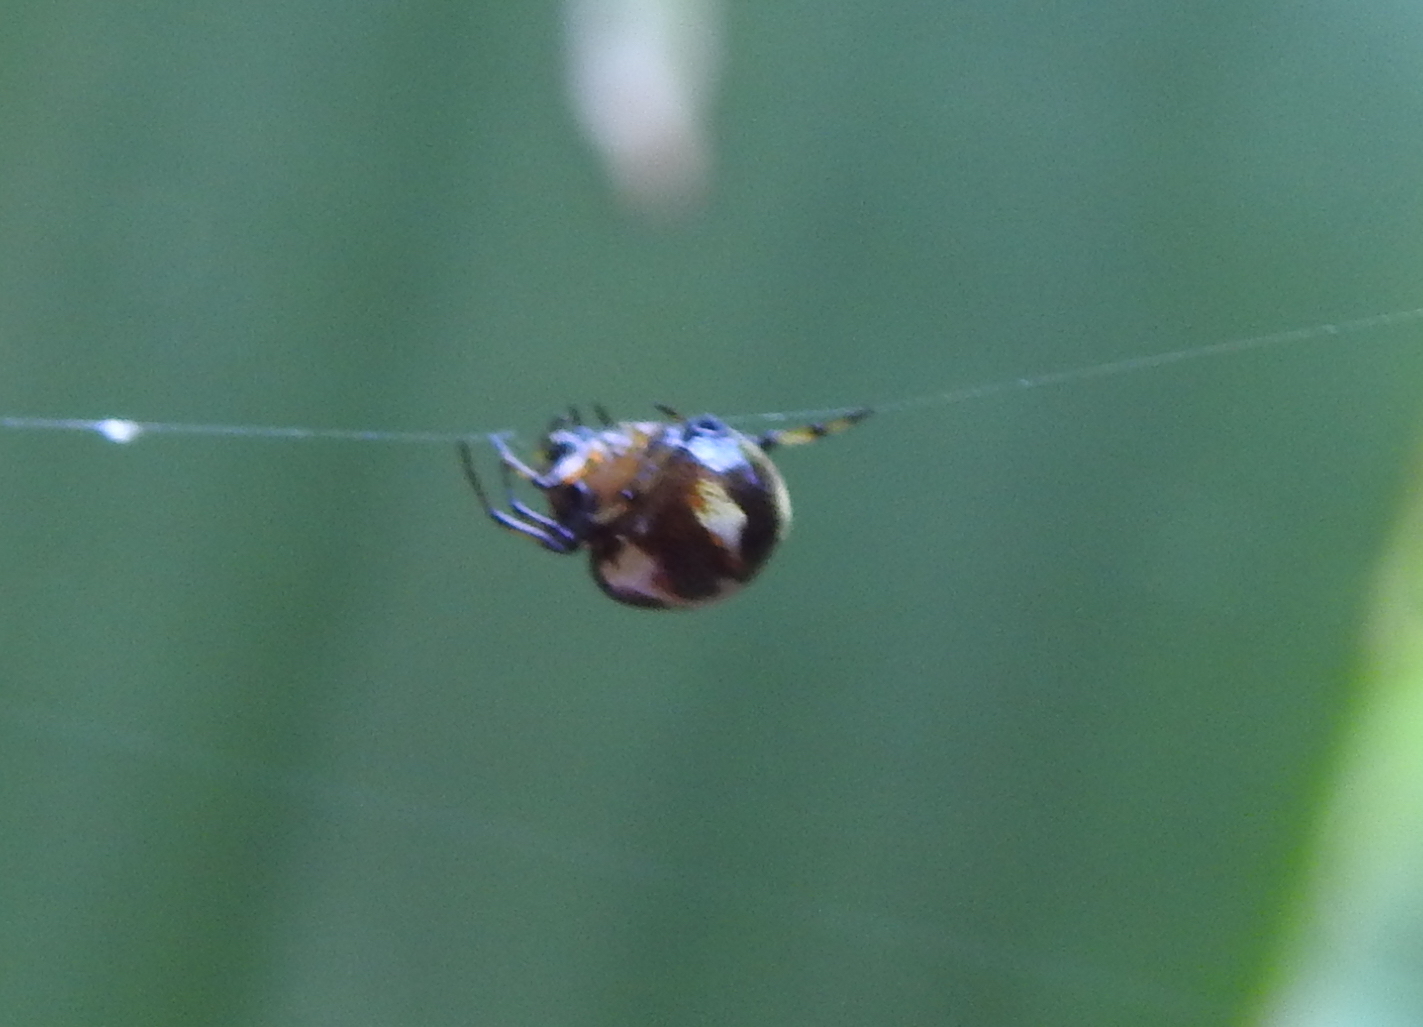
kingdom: Animalia
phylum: Arthropoda
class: Arachnida
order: Araneae
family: Araneidae
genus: Anepsion
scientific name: Anepsion maritatum
